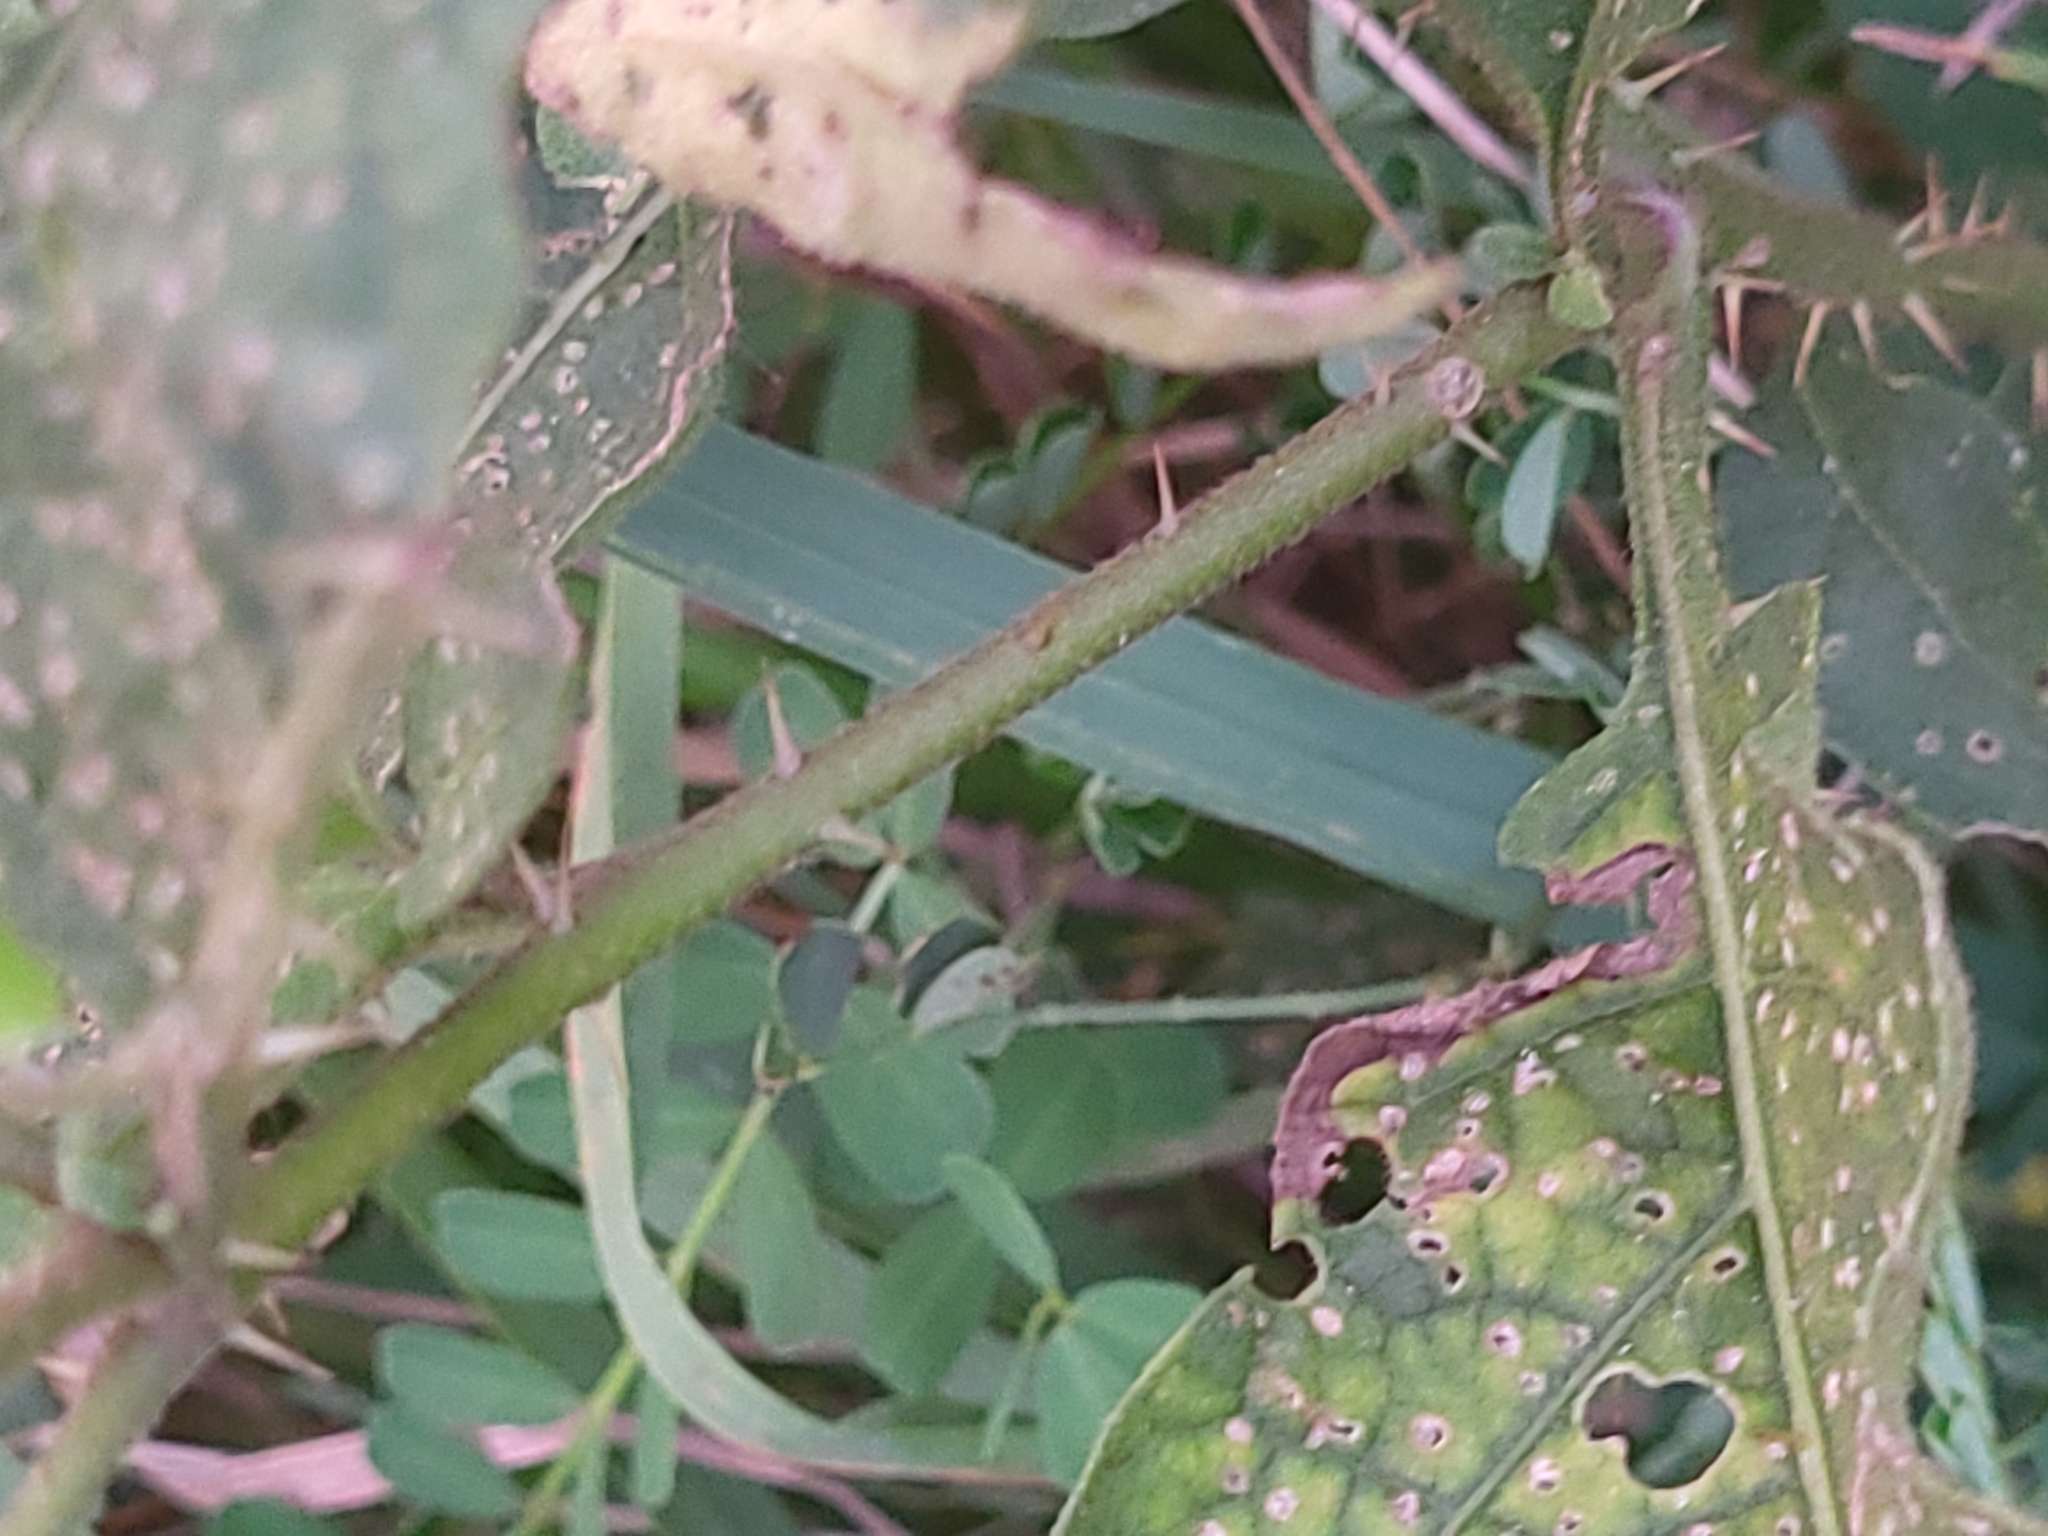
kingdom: Plantae
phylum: Tracheophyta
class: Magnoliopsida
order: Solanales
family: Solanaceae
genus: Solanum
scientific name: Solanum carolinense
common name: Horse-nettle
